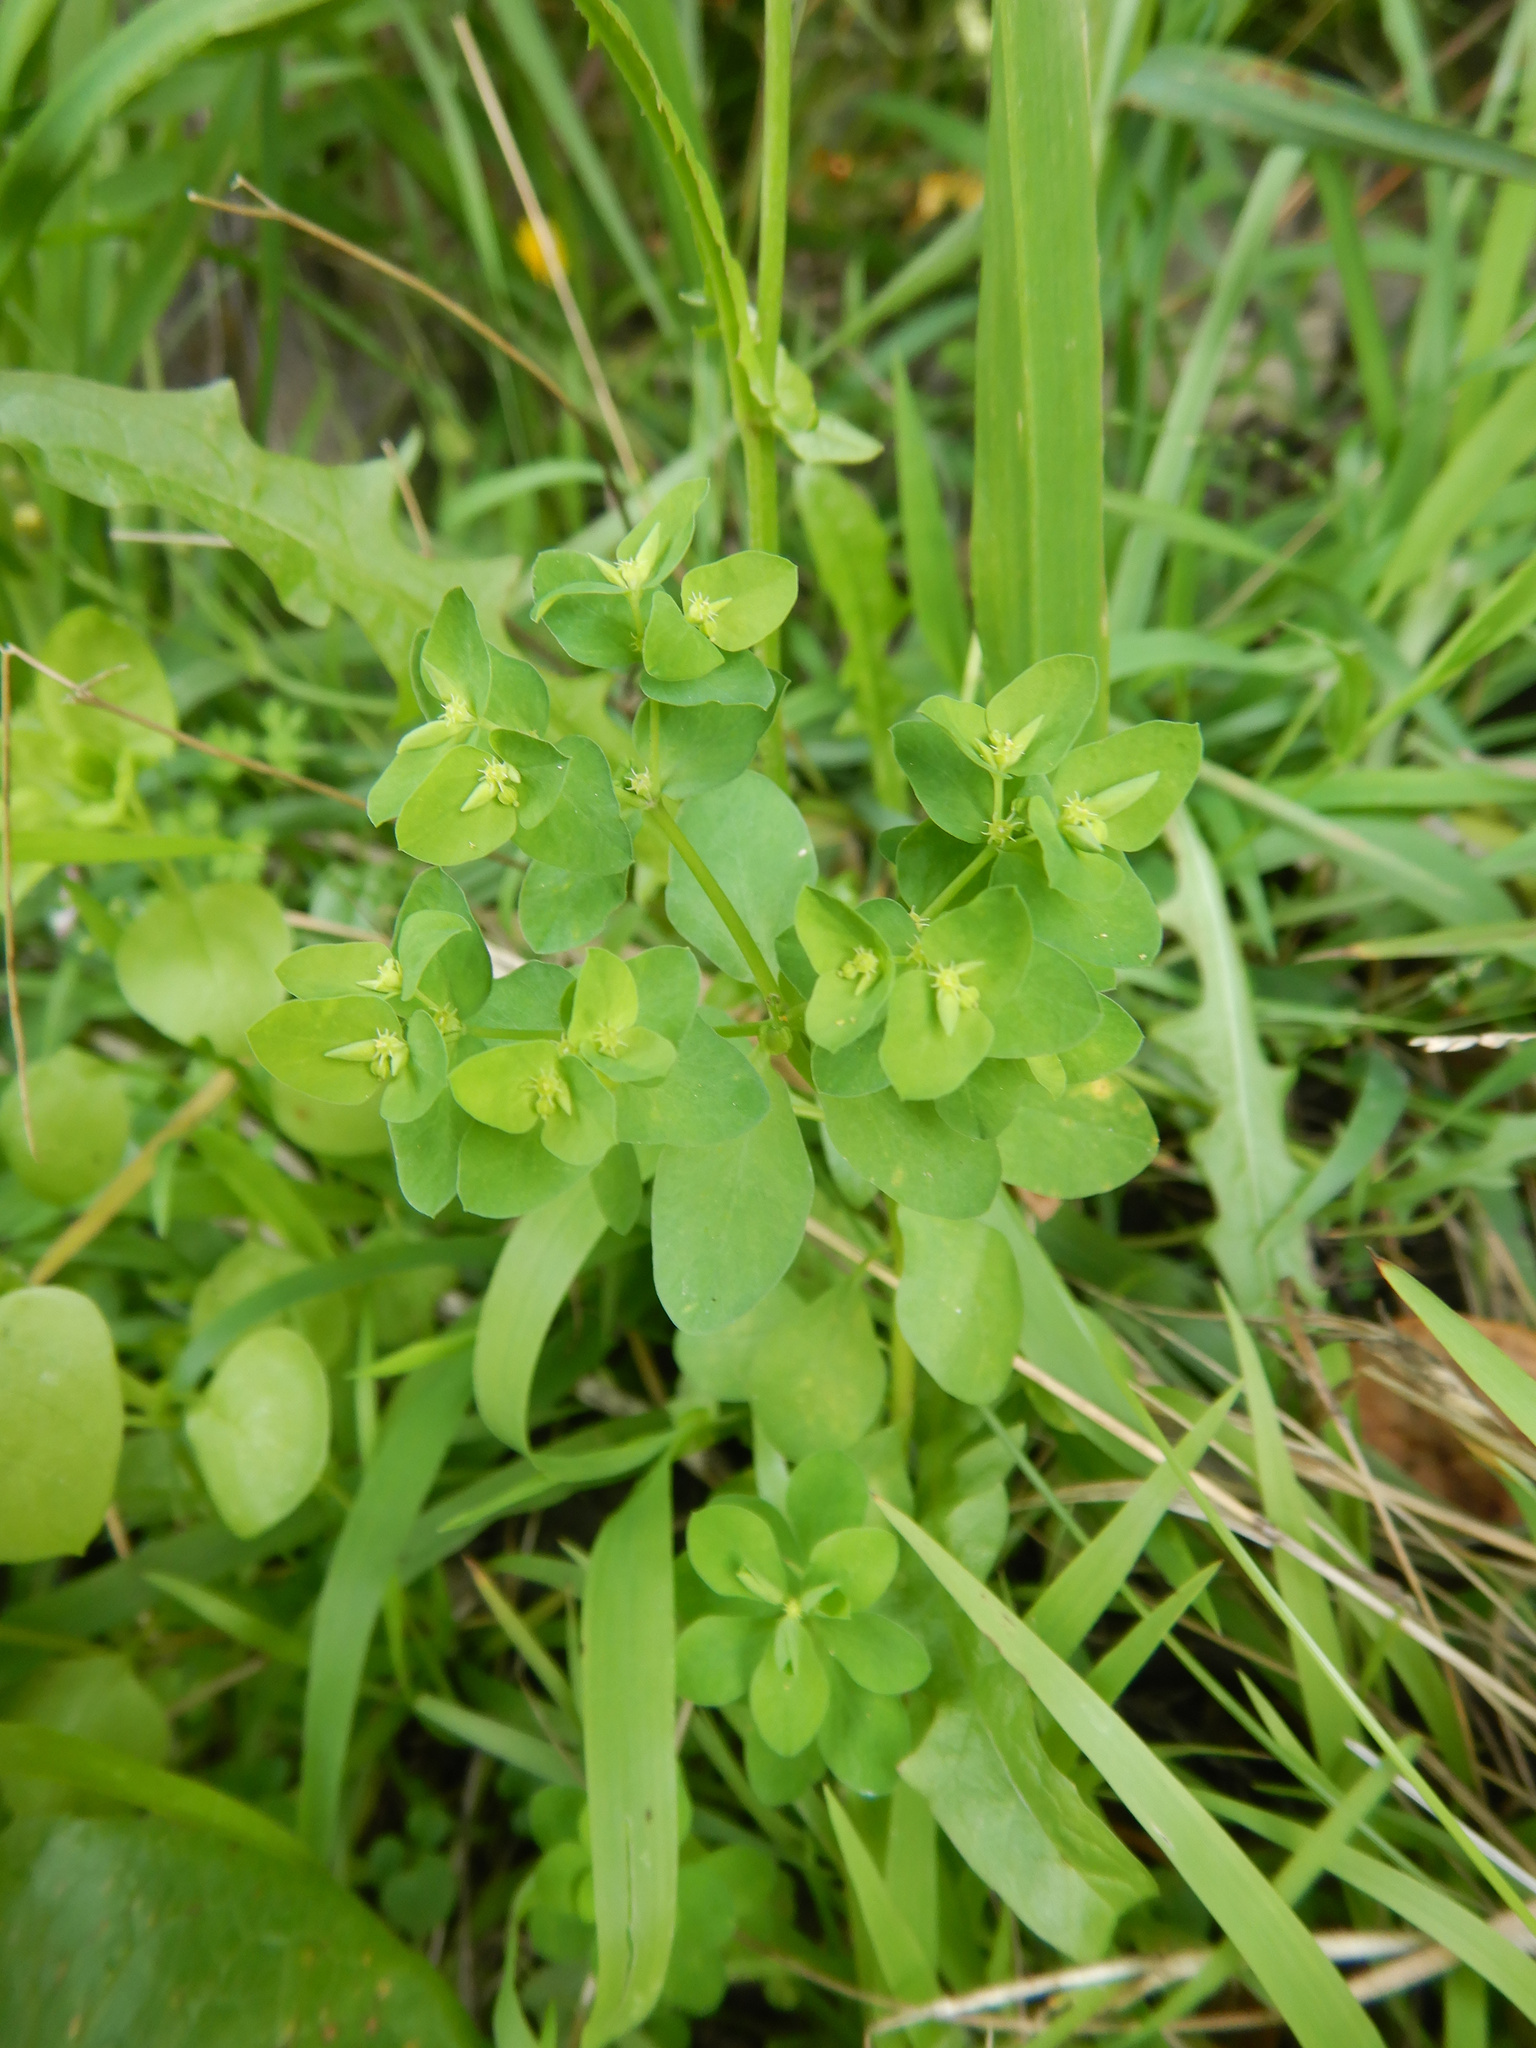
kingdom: Plantae
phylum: Tracheophyta
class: Magnoliopsida
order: Malpighiales
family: Euphorbiaceae
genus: Euphorbia
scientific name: Euphorbia peplus
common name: Petty spurge
